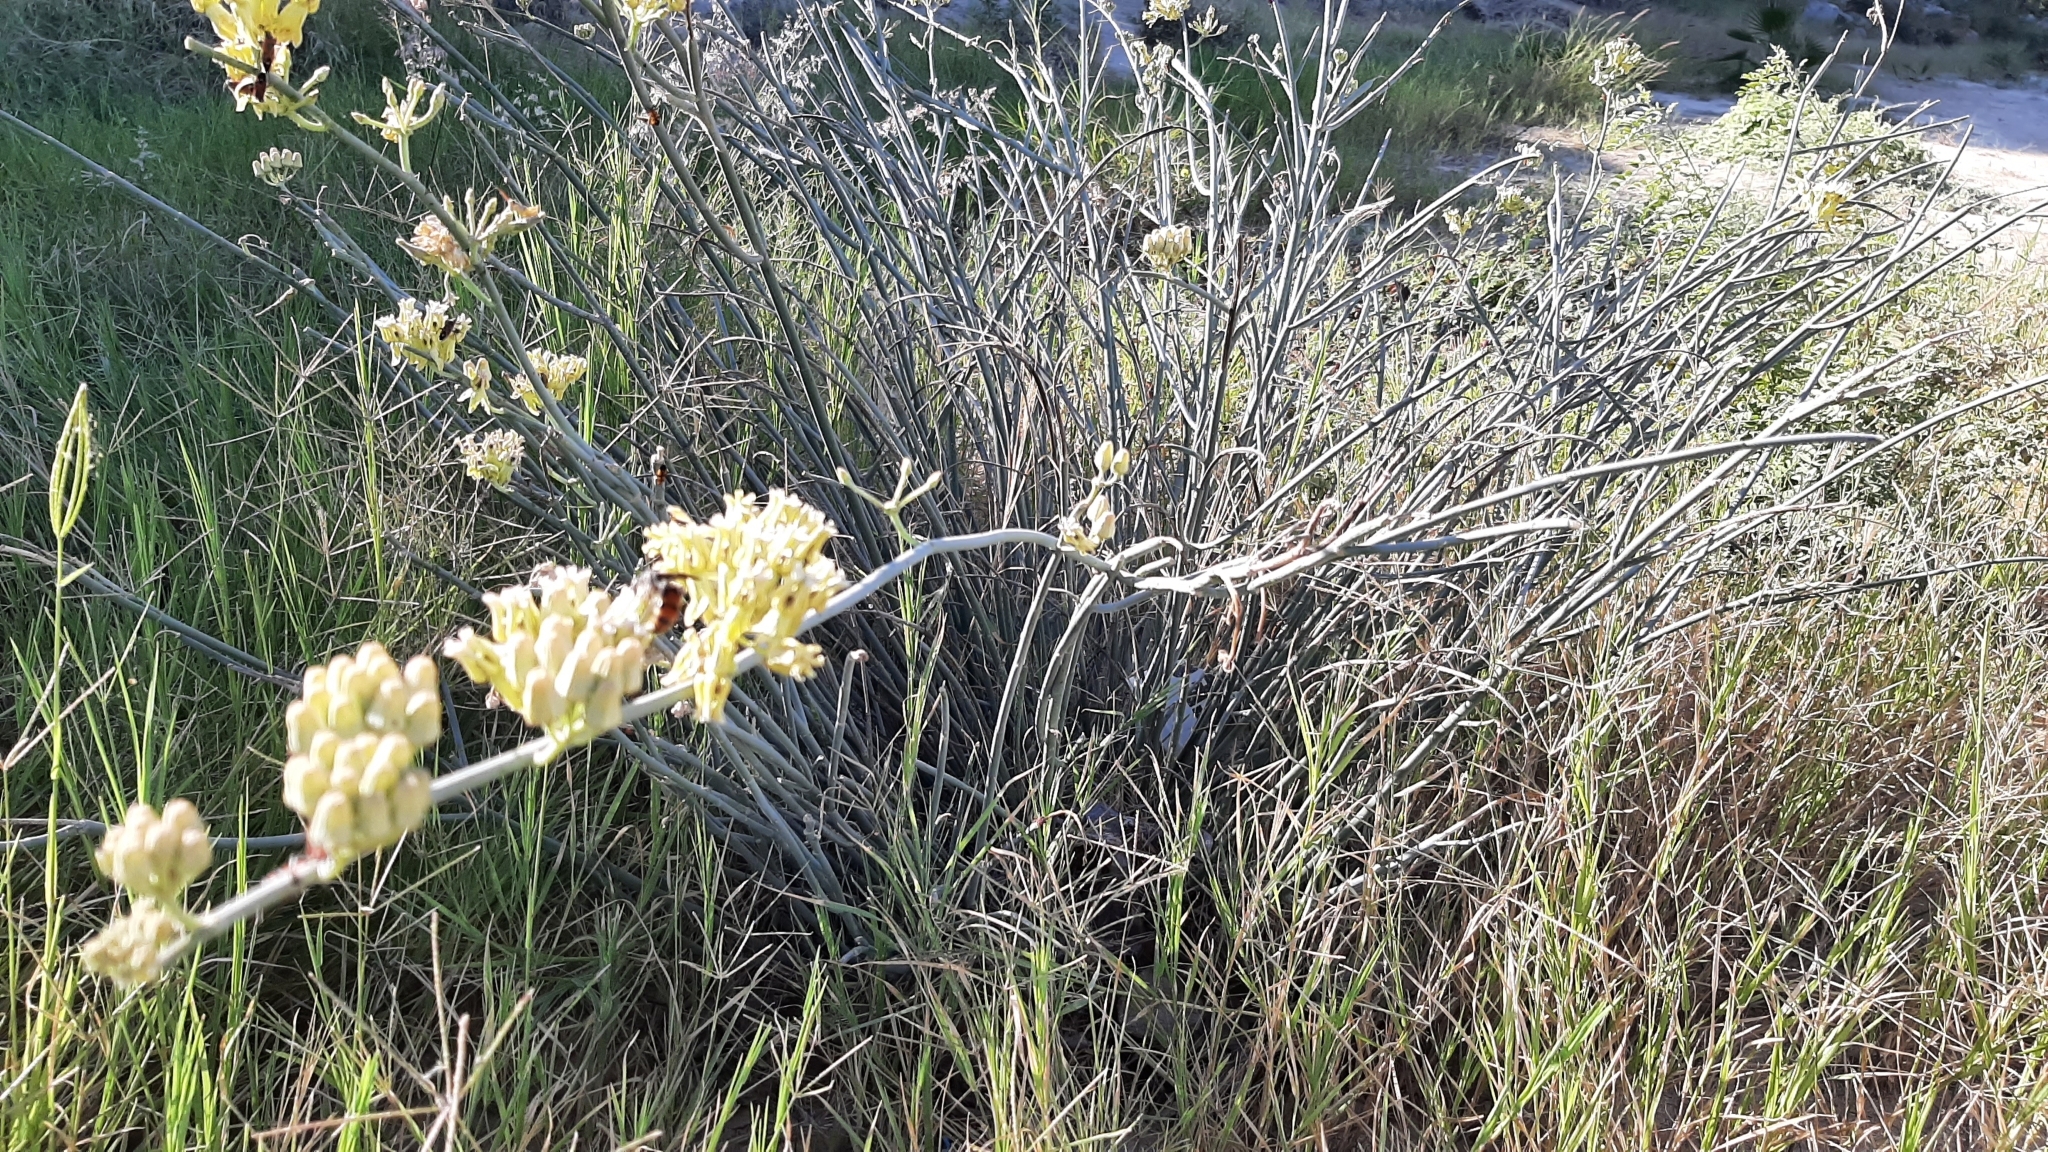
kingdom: Plantae
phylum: Tracheophyta
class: Magnoliopsida
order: Gentianales
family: Apocynaceae
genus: Asclepias
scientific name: Asclepias subulata
